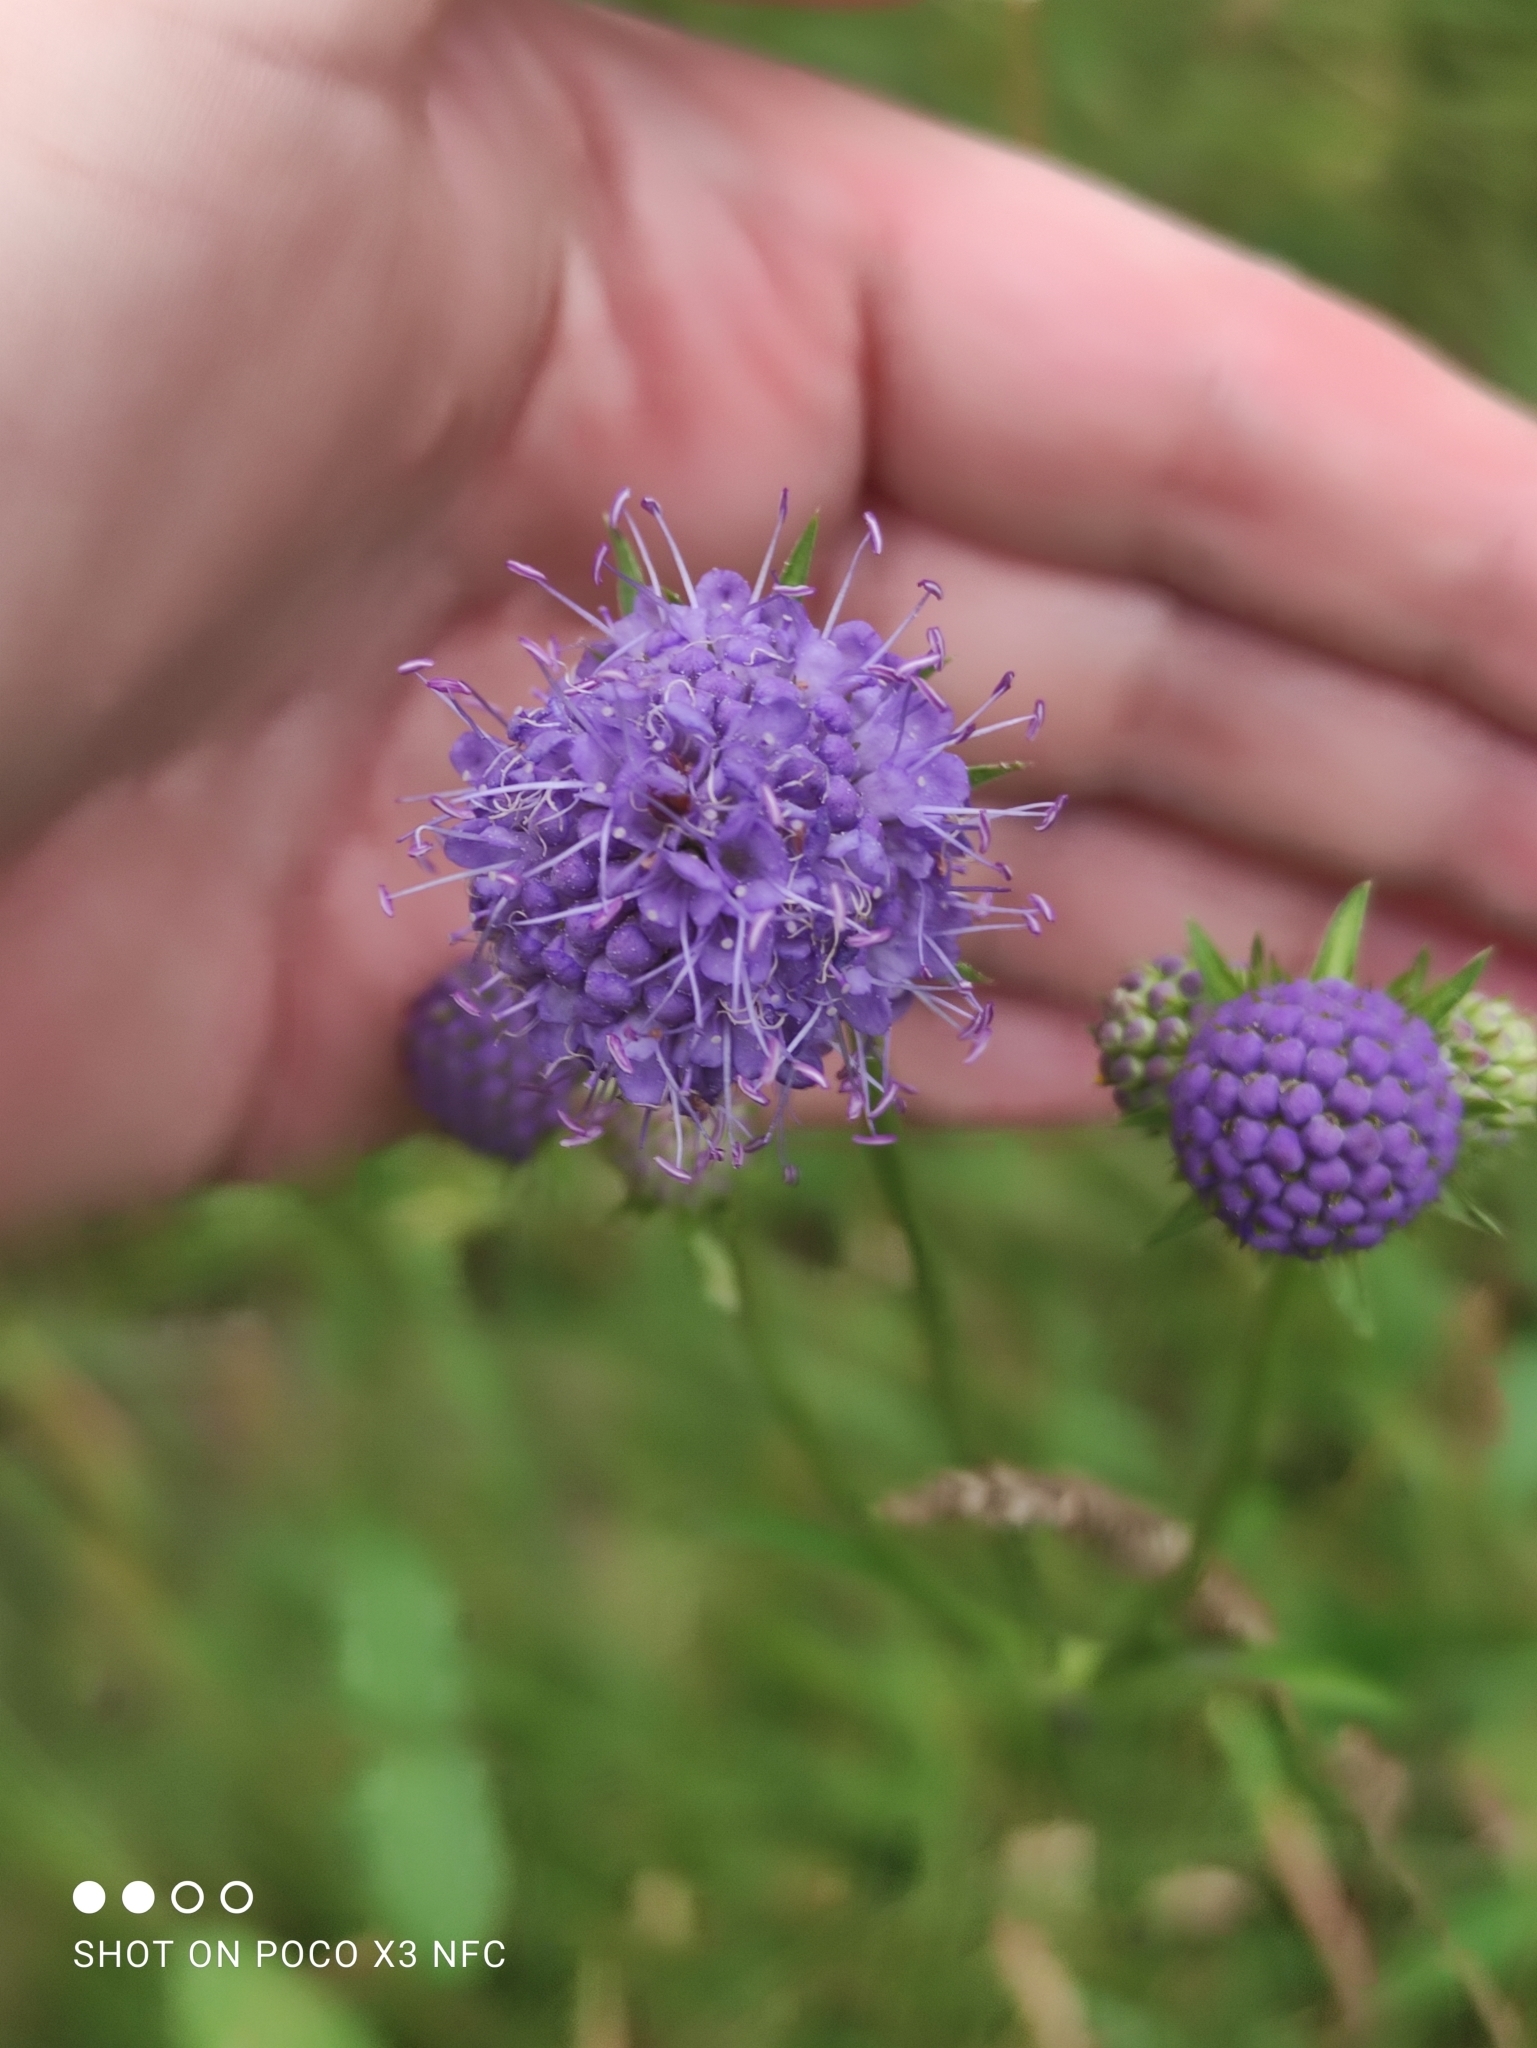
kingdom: Plantae
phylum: Tracheophyta
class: Magnoliopsida
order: Dipsacales
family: Caprifoliaceae
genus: Succisa
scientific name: Succisa pratensis
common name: Devil's-bit
